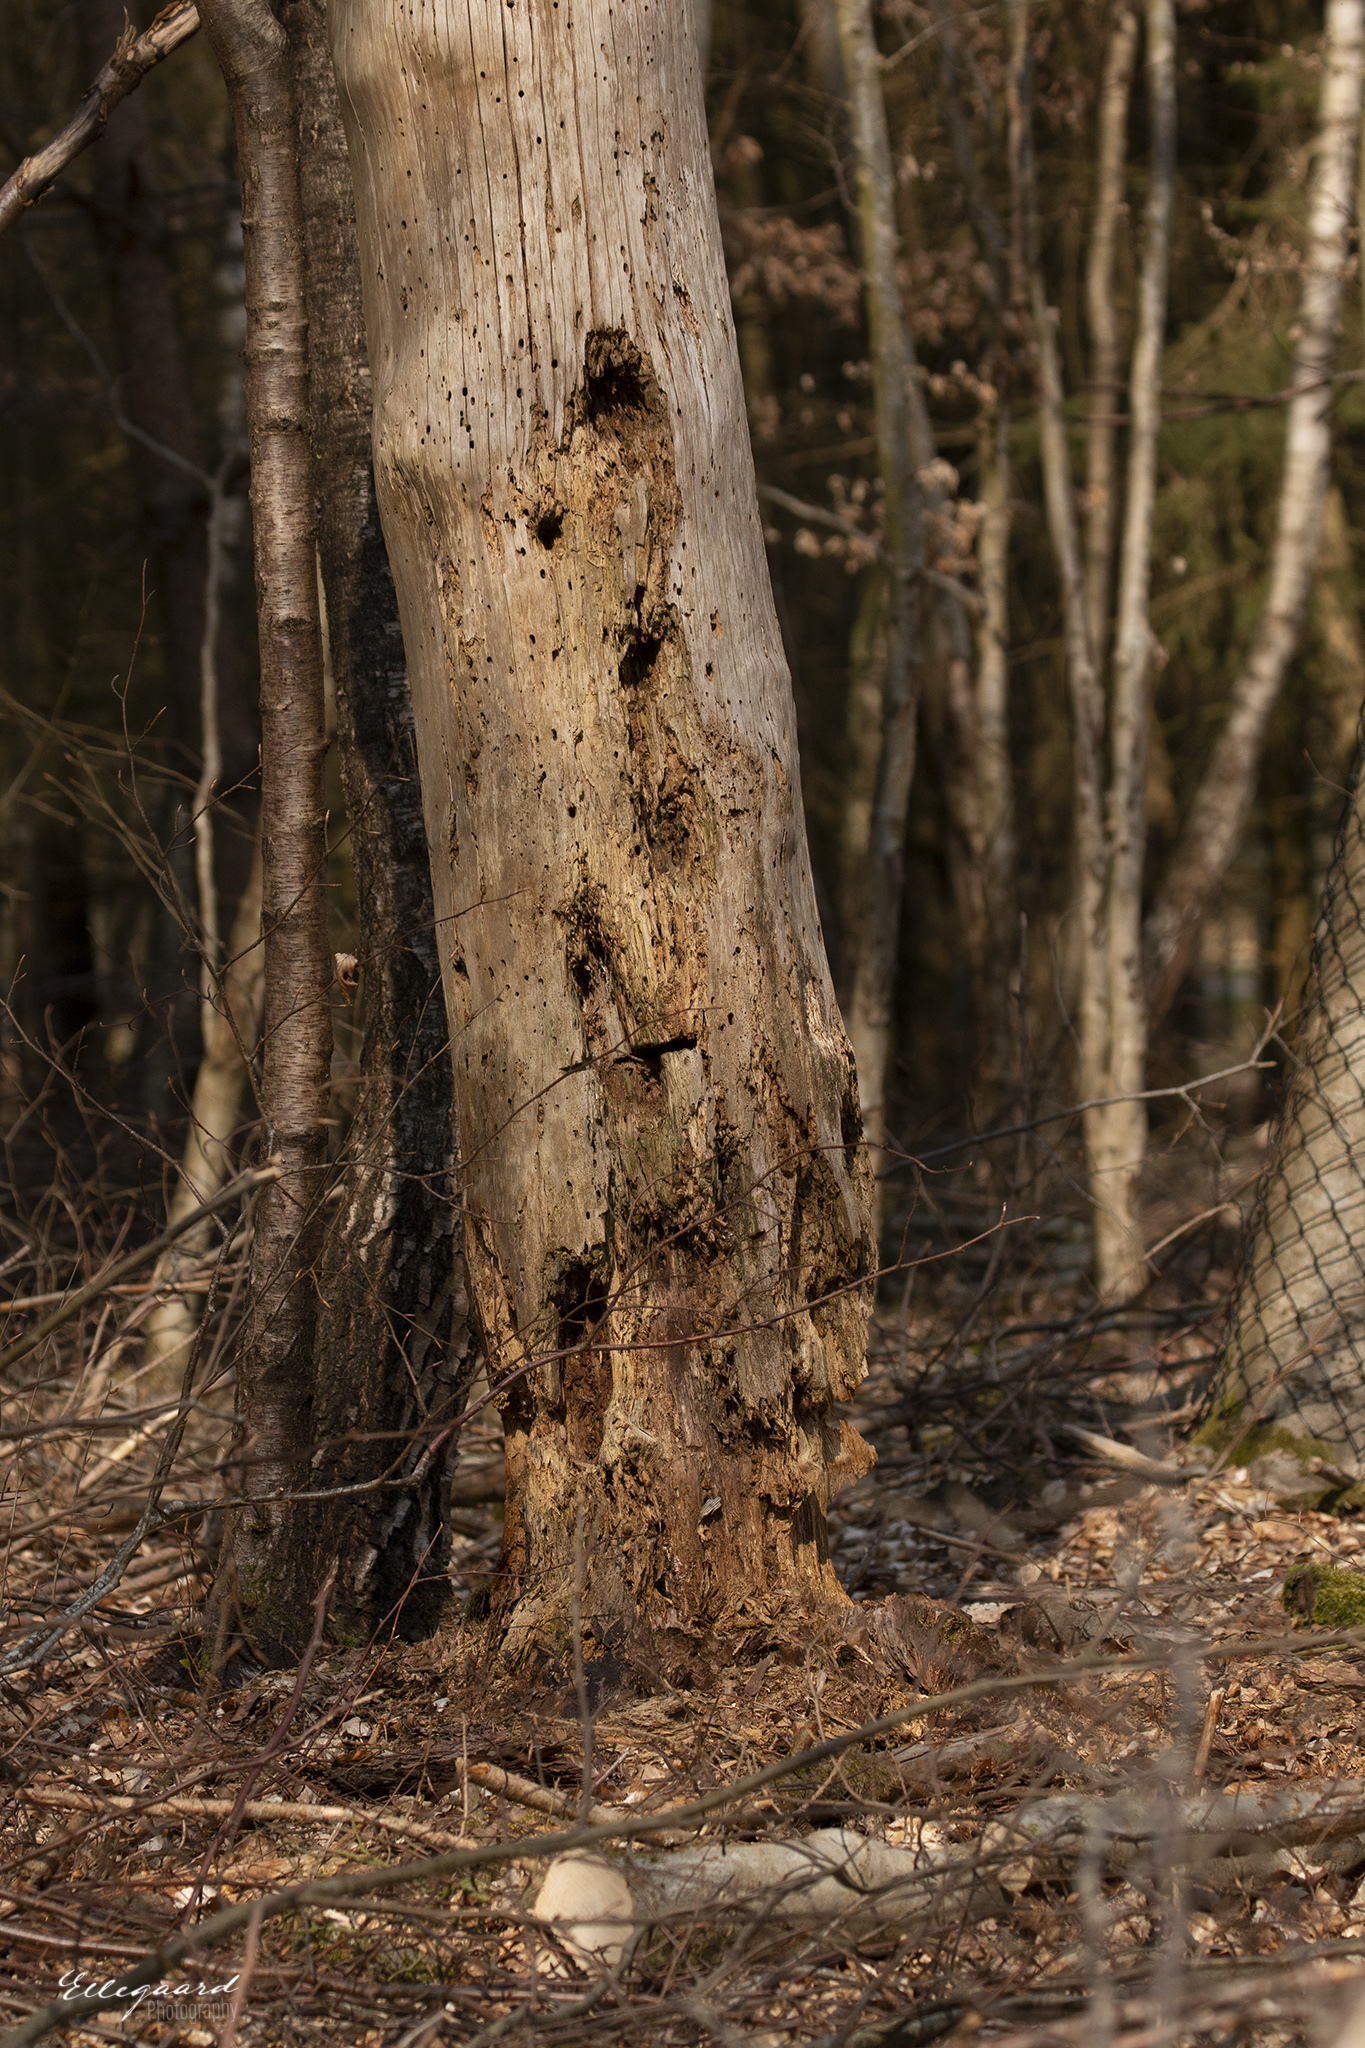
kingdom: Animalia
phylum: Chordata
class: Aves
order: Piciformes
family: Picidae
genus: Dendrocopos
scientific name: Dendrocopos major
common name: Great spotted woodpecker
